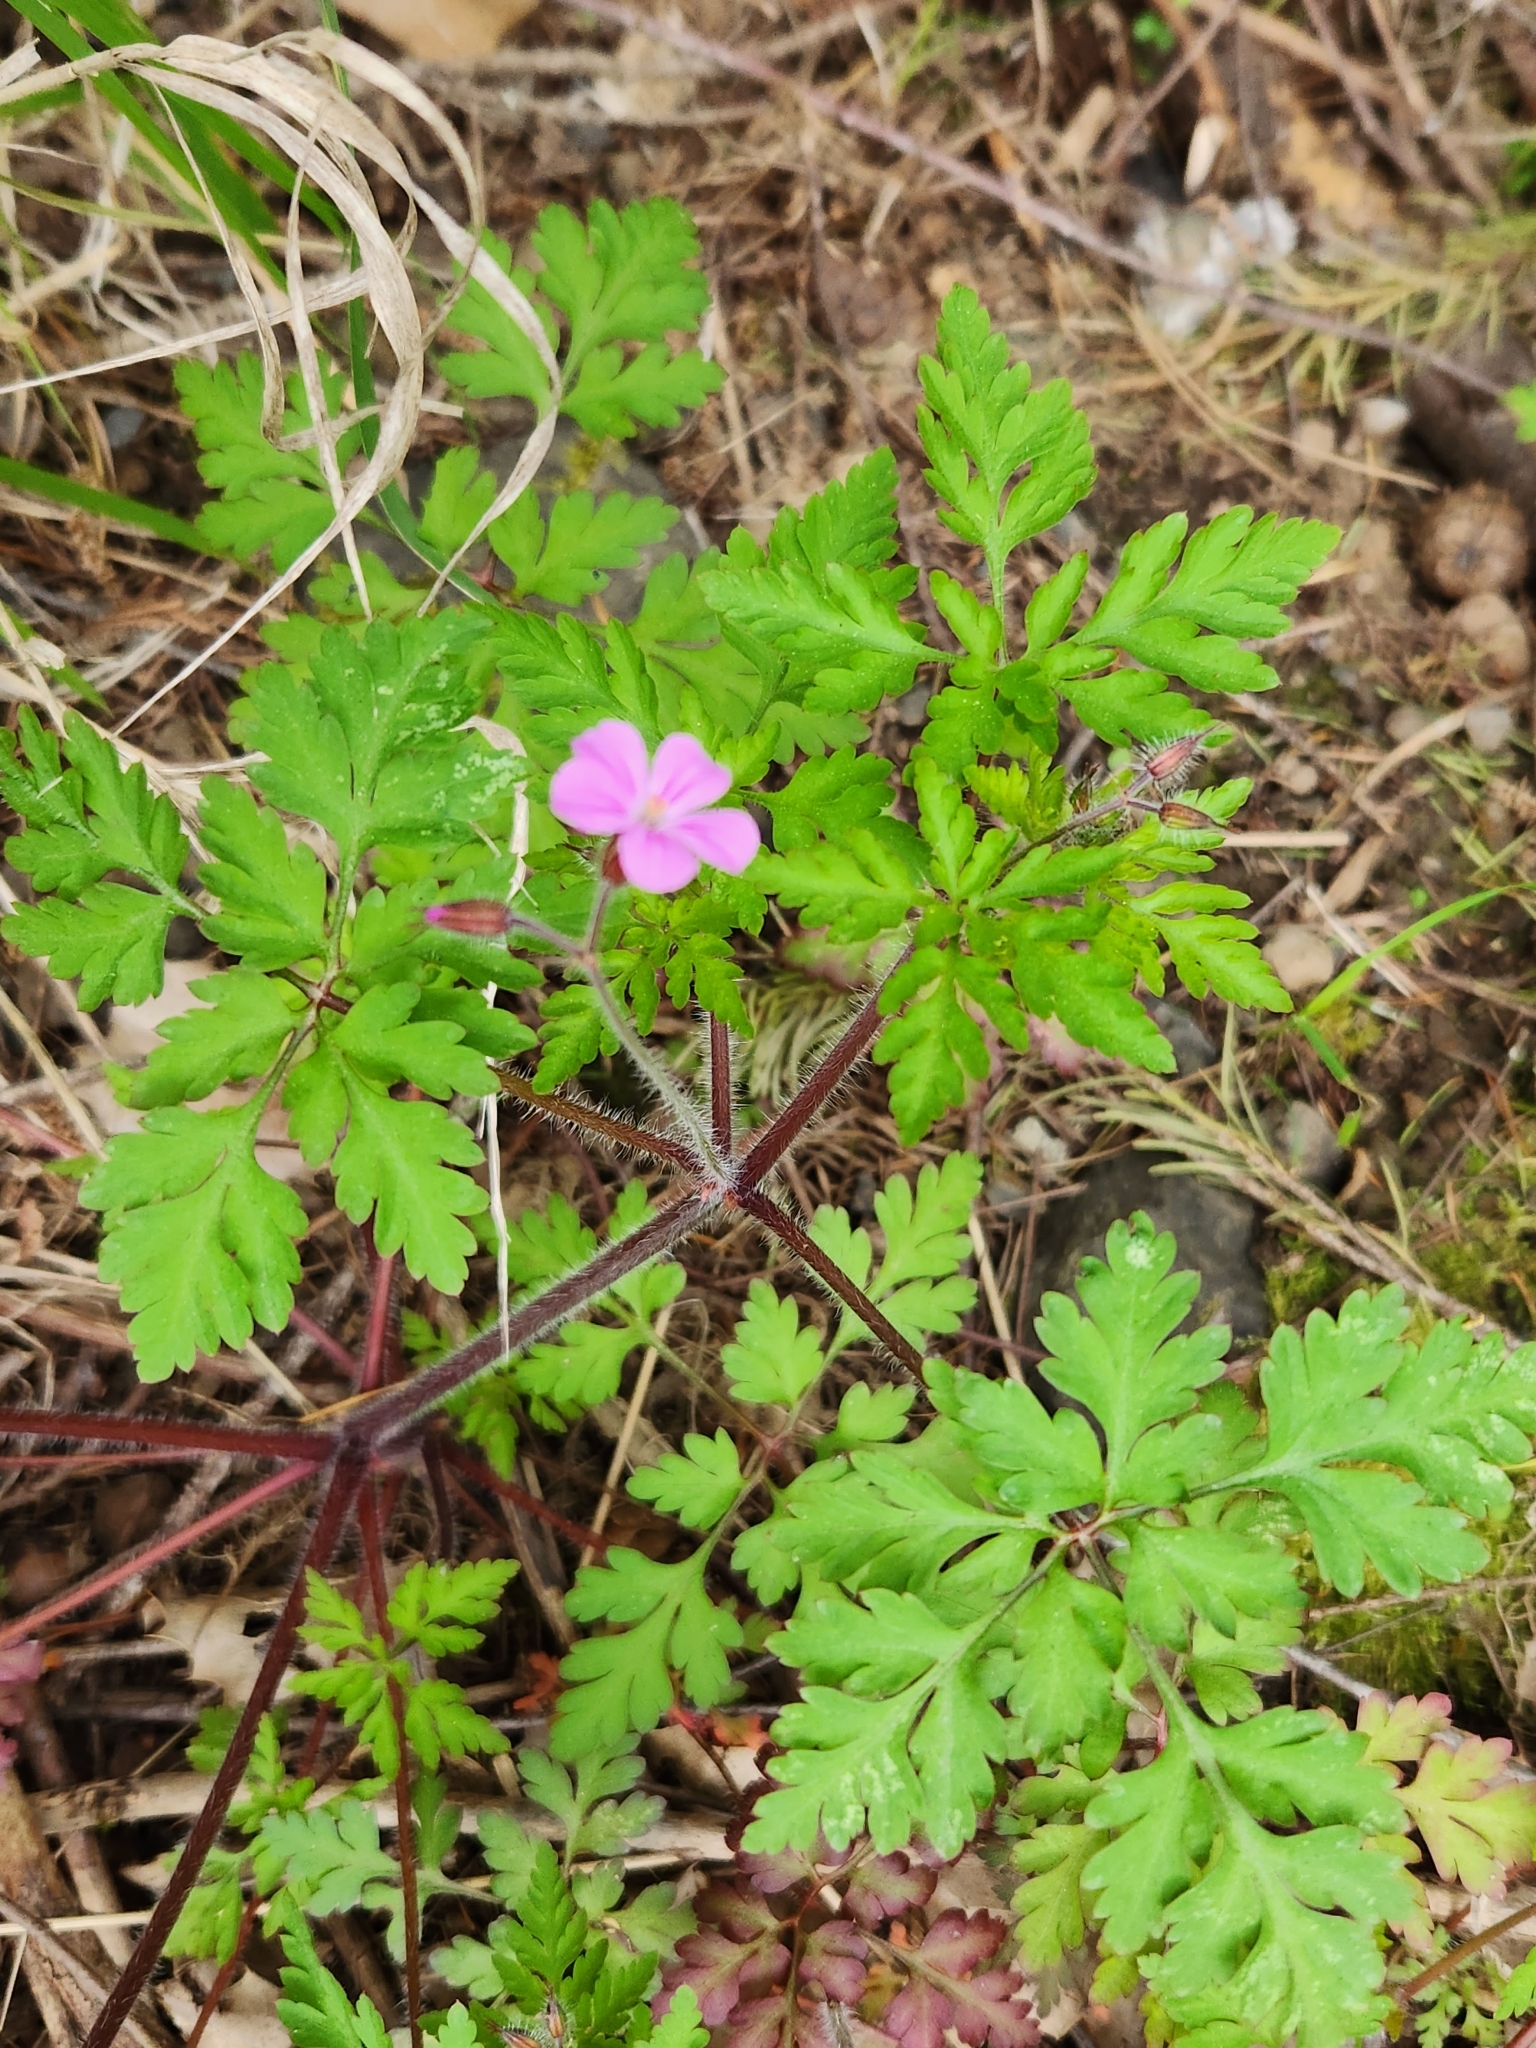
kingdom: Plantae
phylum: Tracheophyta
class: Magnoliopsida
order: Geraniales
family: Geraniaceae
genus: Geranium
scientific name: Geranium robertianum
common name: Herb-robert
